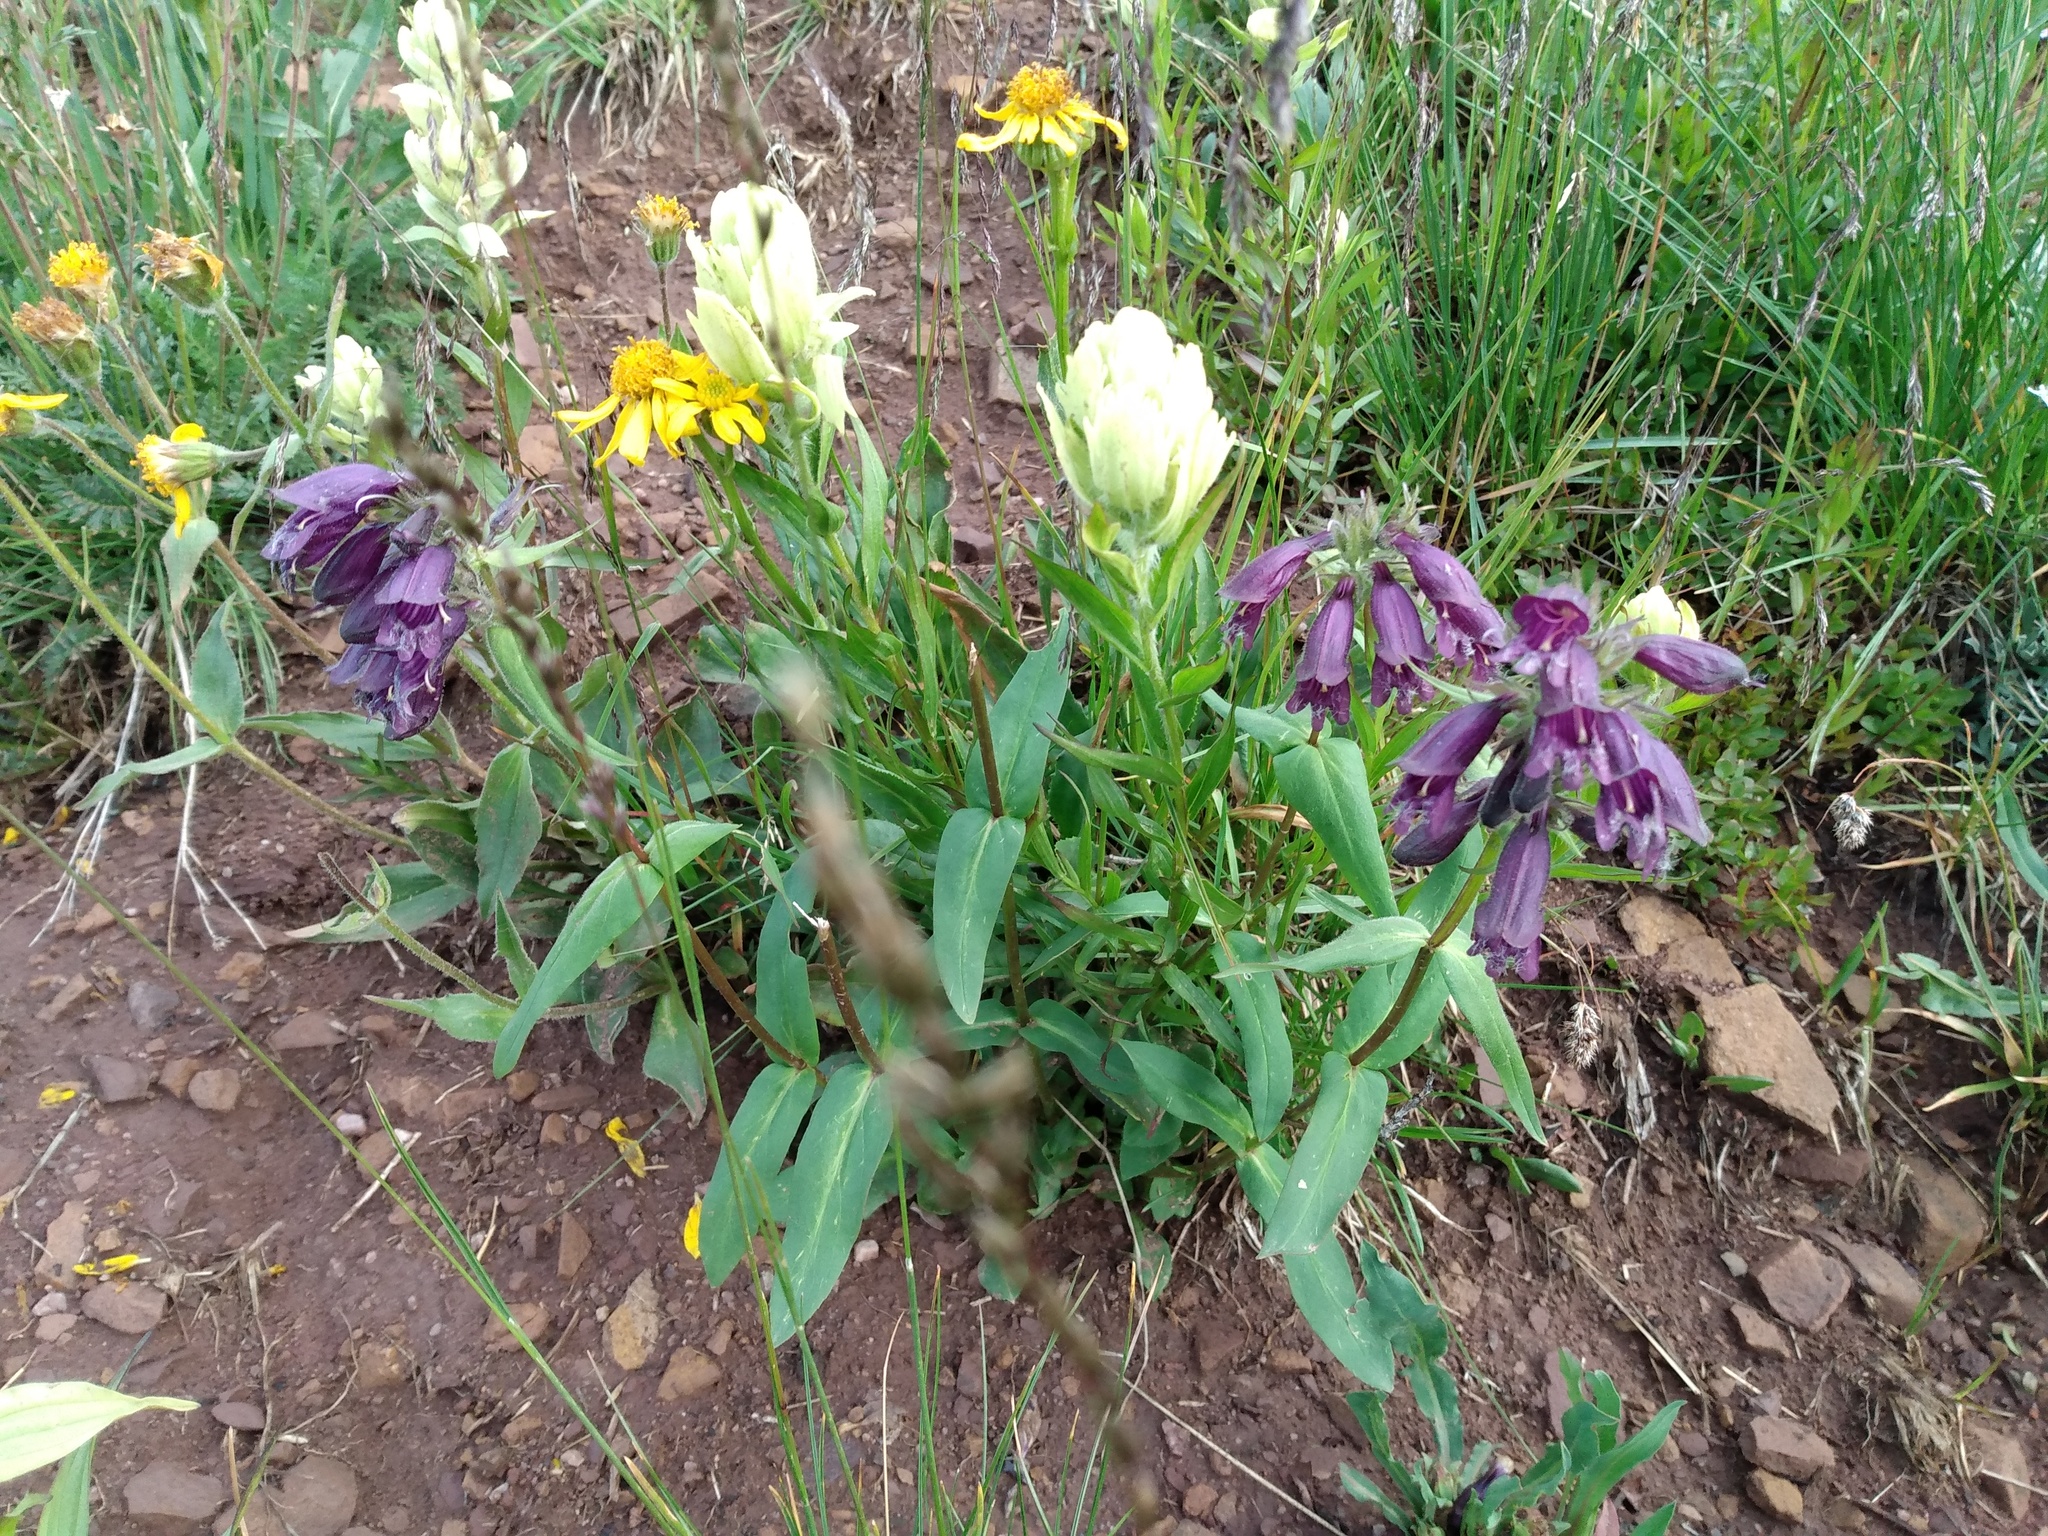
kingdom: Plantae
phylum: Tracheophyta
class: Magnoliopsida
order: Lamiales
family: Plantaginaceae
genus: Penstemon
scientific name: Penstemon whippleanus
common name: Whipple's penstemon
